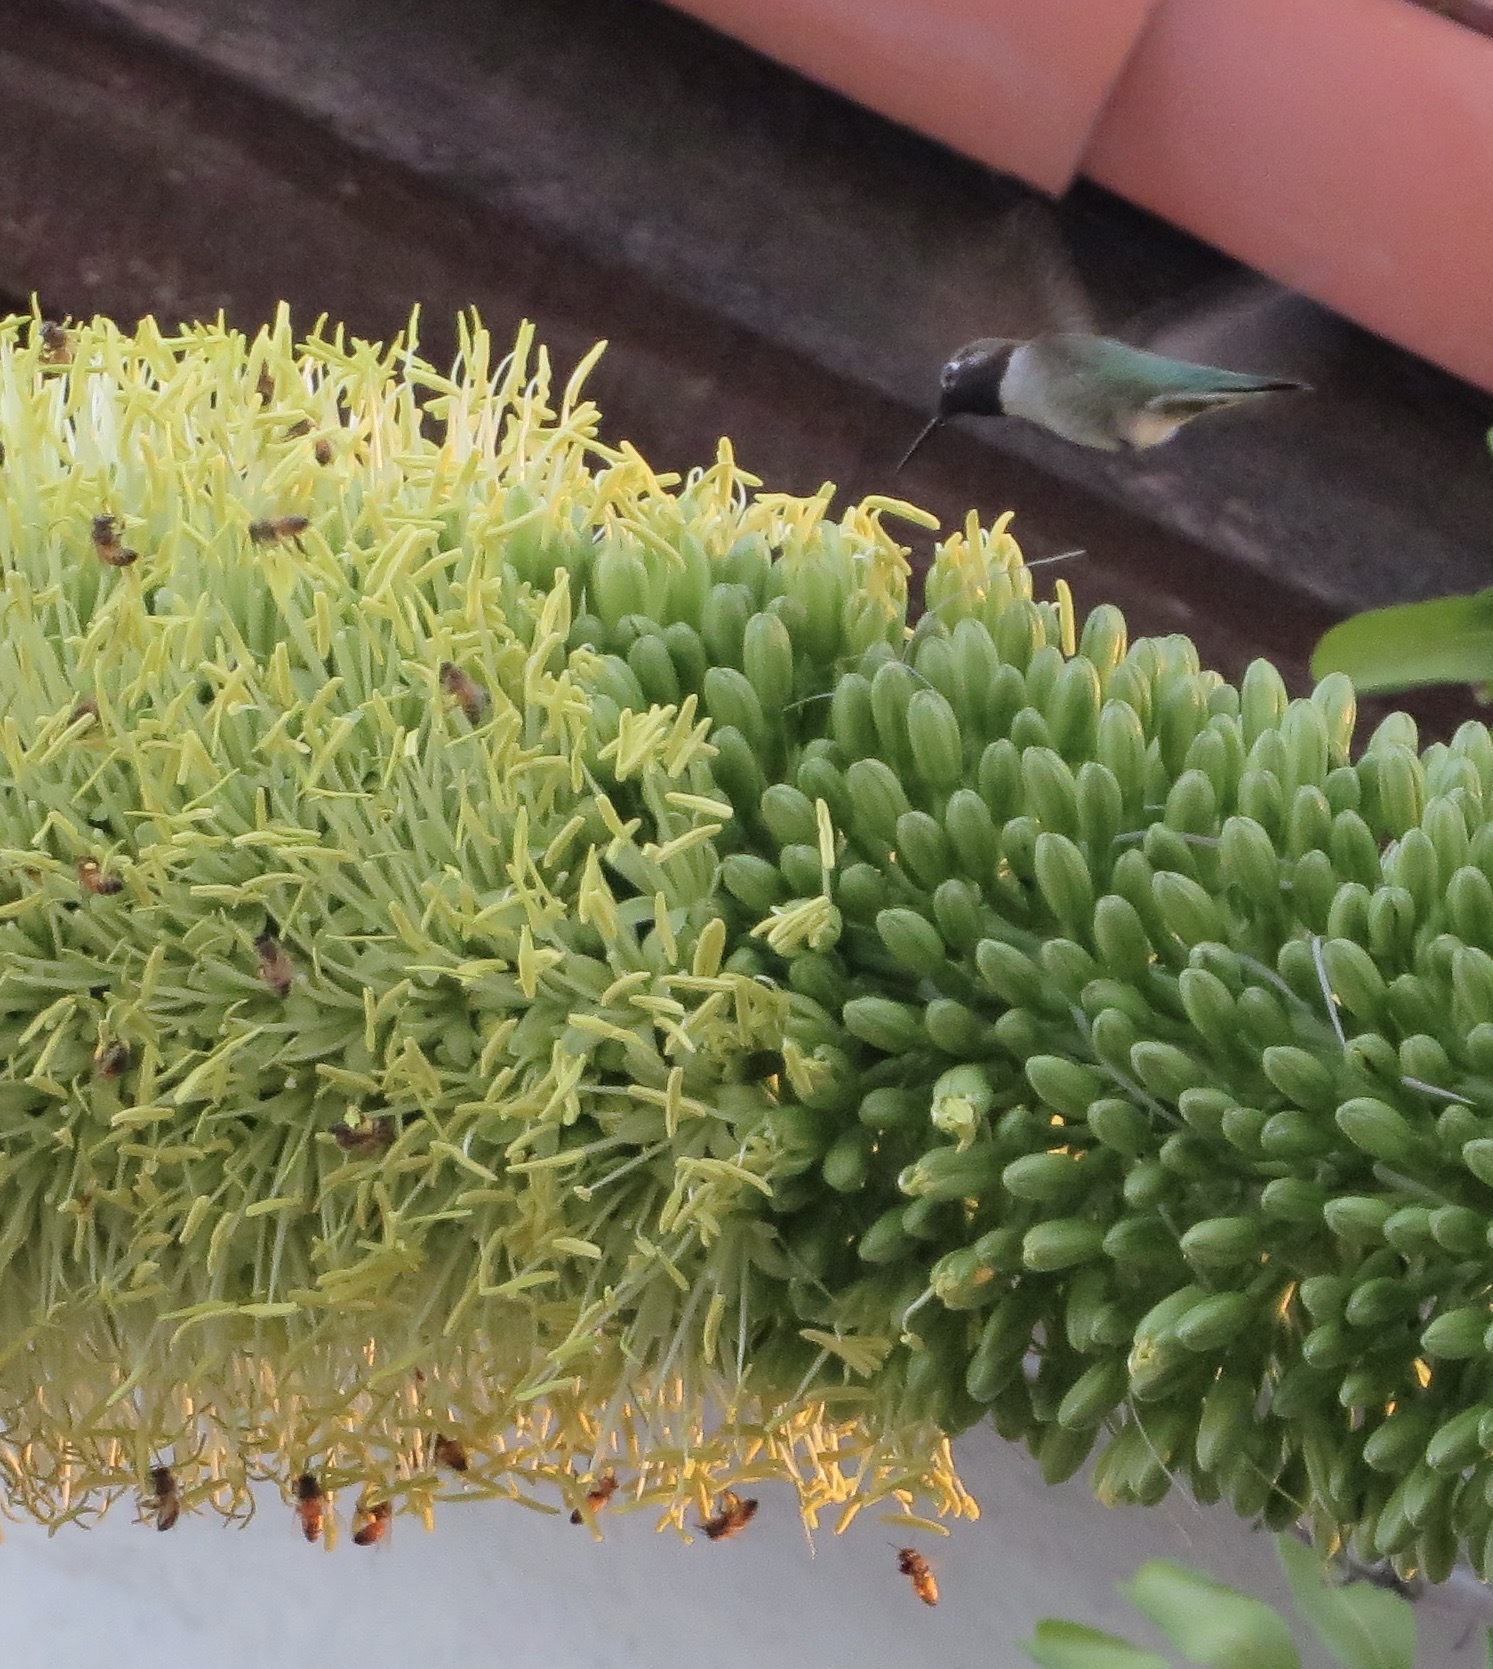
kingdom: Animalia
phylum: Chordata
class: Aves
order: Apodiformes
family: Trochilidae
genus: Calypte
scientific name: Calypte anna
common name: Anna's hummingbird
